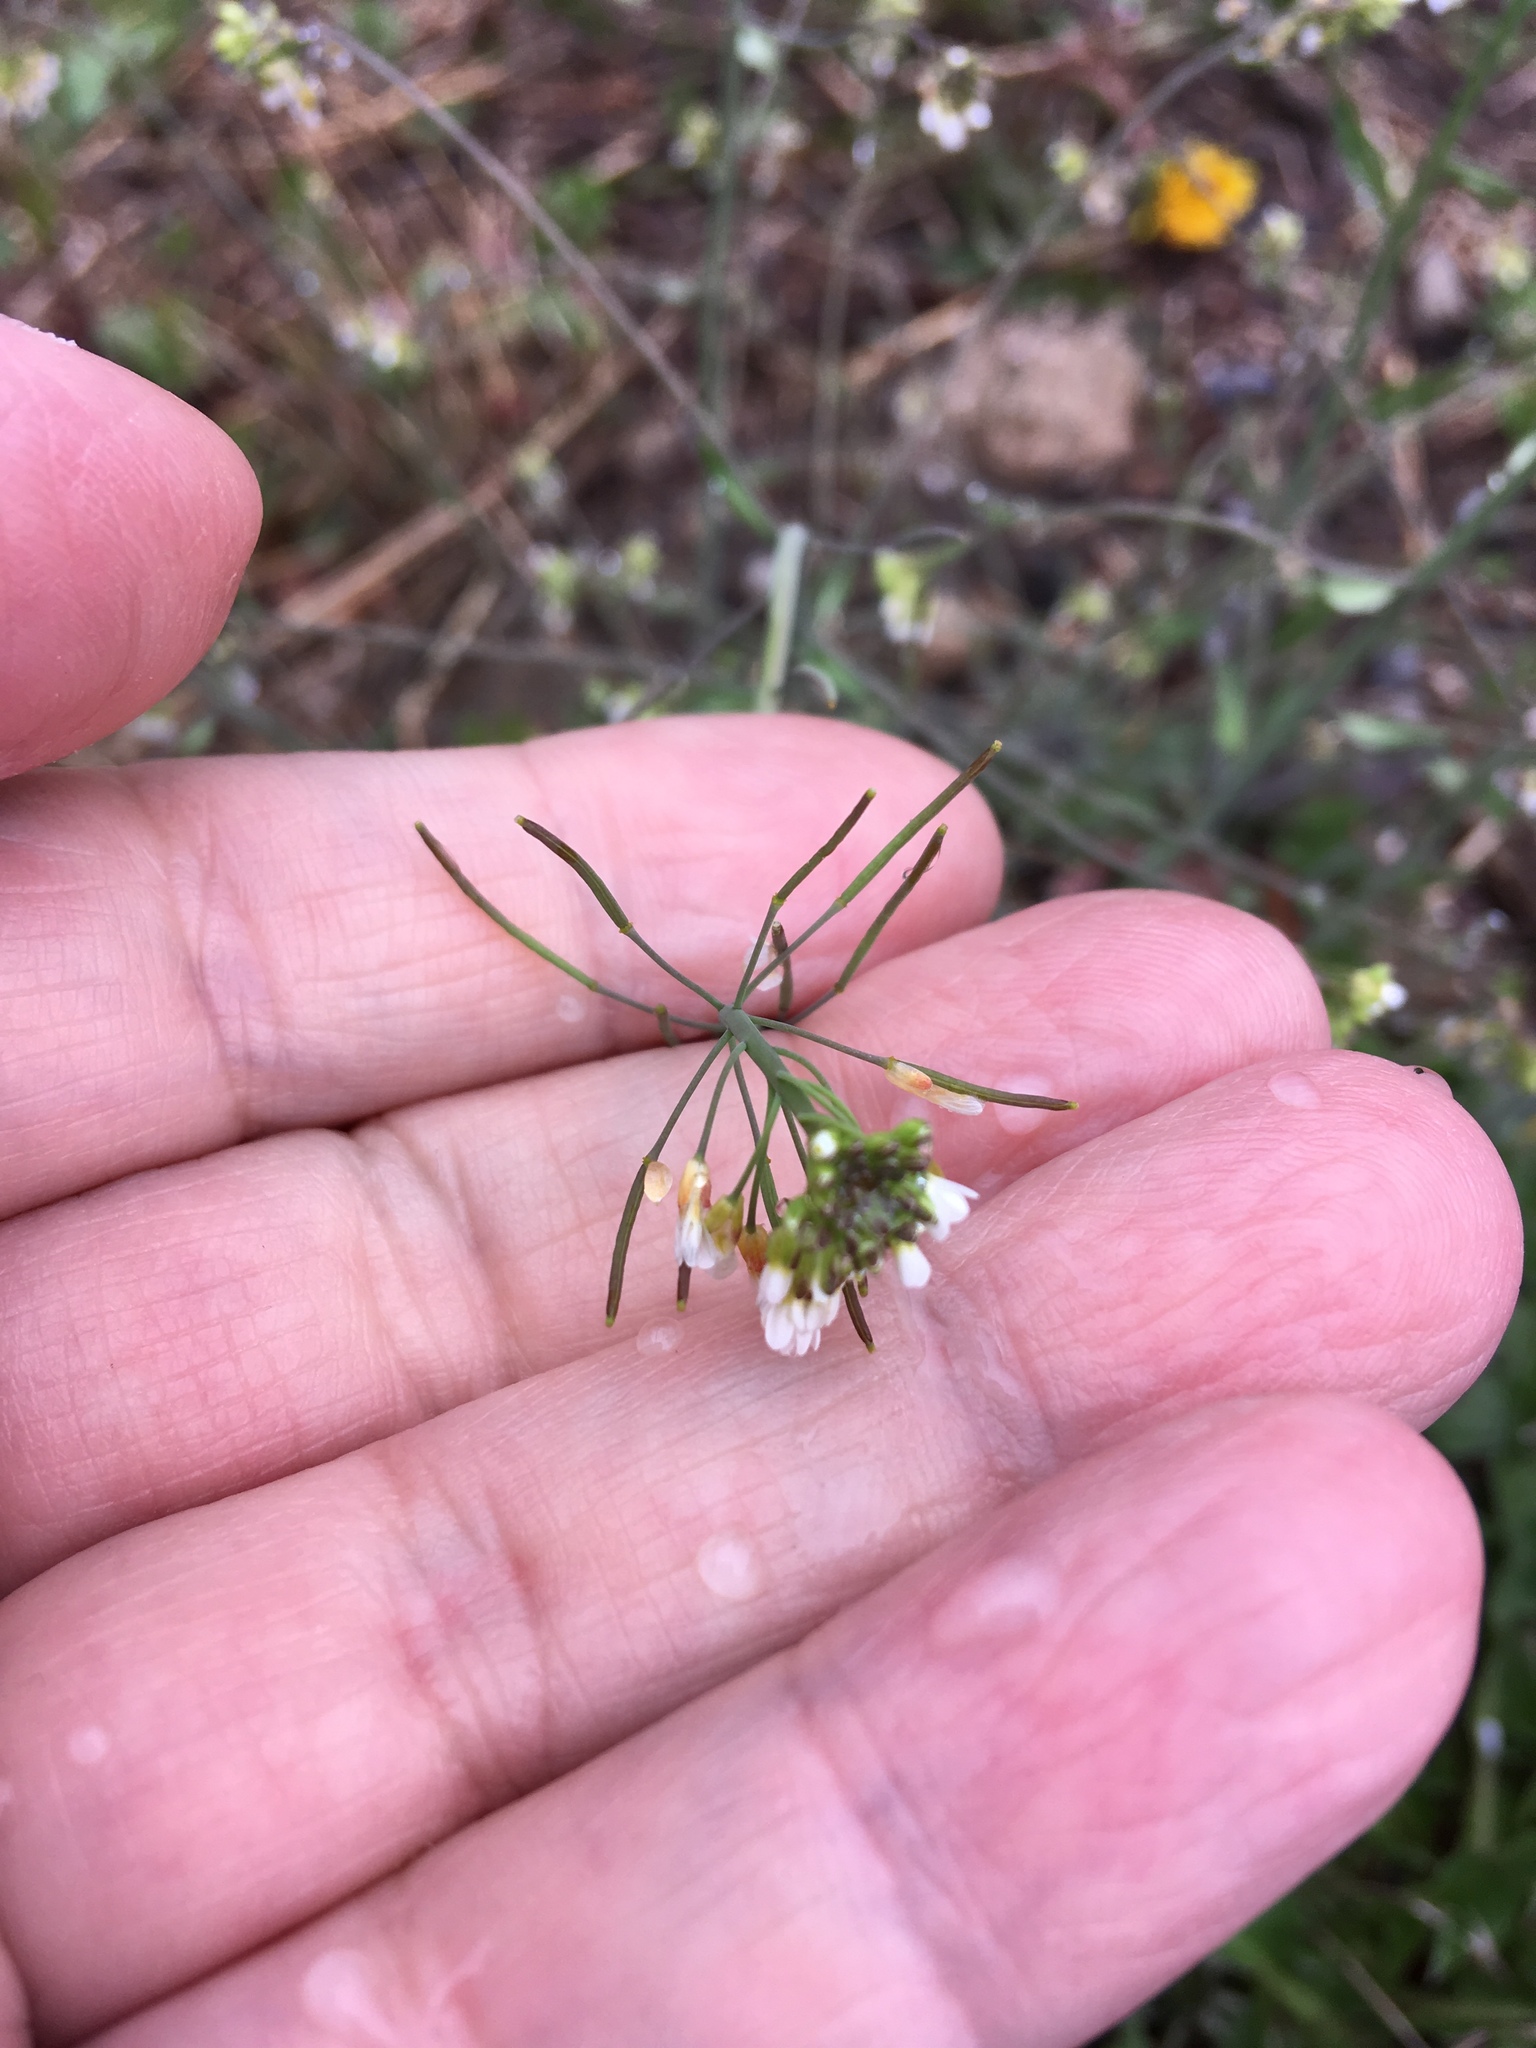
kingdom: Plantae
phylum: Tracheophyta
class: Magnoliopsida
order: Brassicales
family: Brassicaceae
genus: Arabidopsis
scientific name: Arabidopsis thaliana
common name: Thale cress
